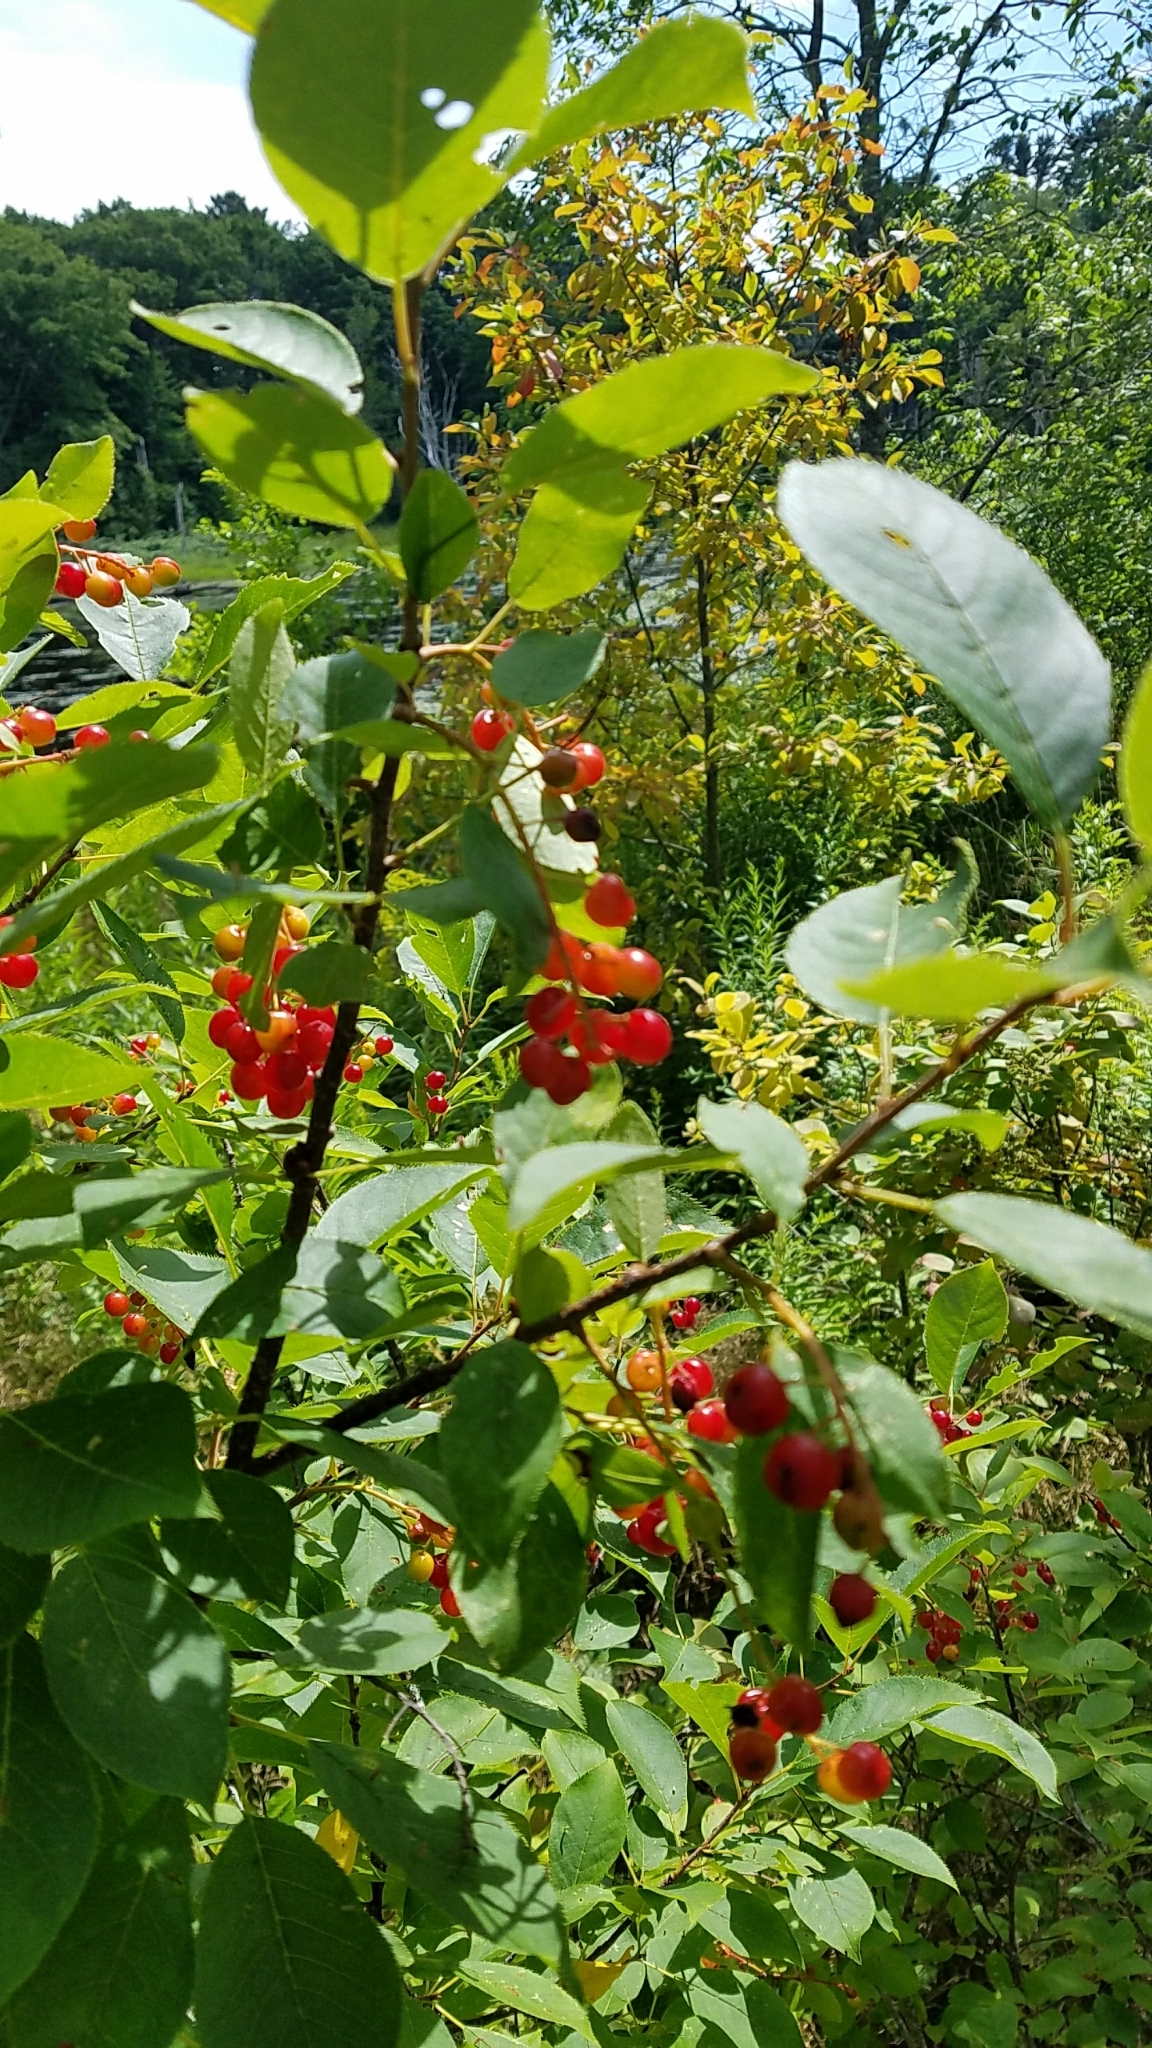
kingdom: Plantae
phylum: Tracheophyta
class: Magnoliopsida
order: Rosales
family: Rosaceae
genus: Prunus
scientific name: Prunus virginiana
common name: Chokecherry
